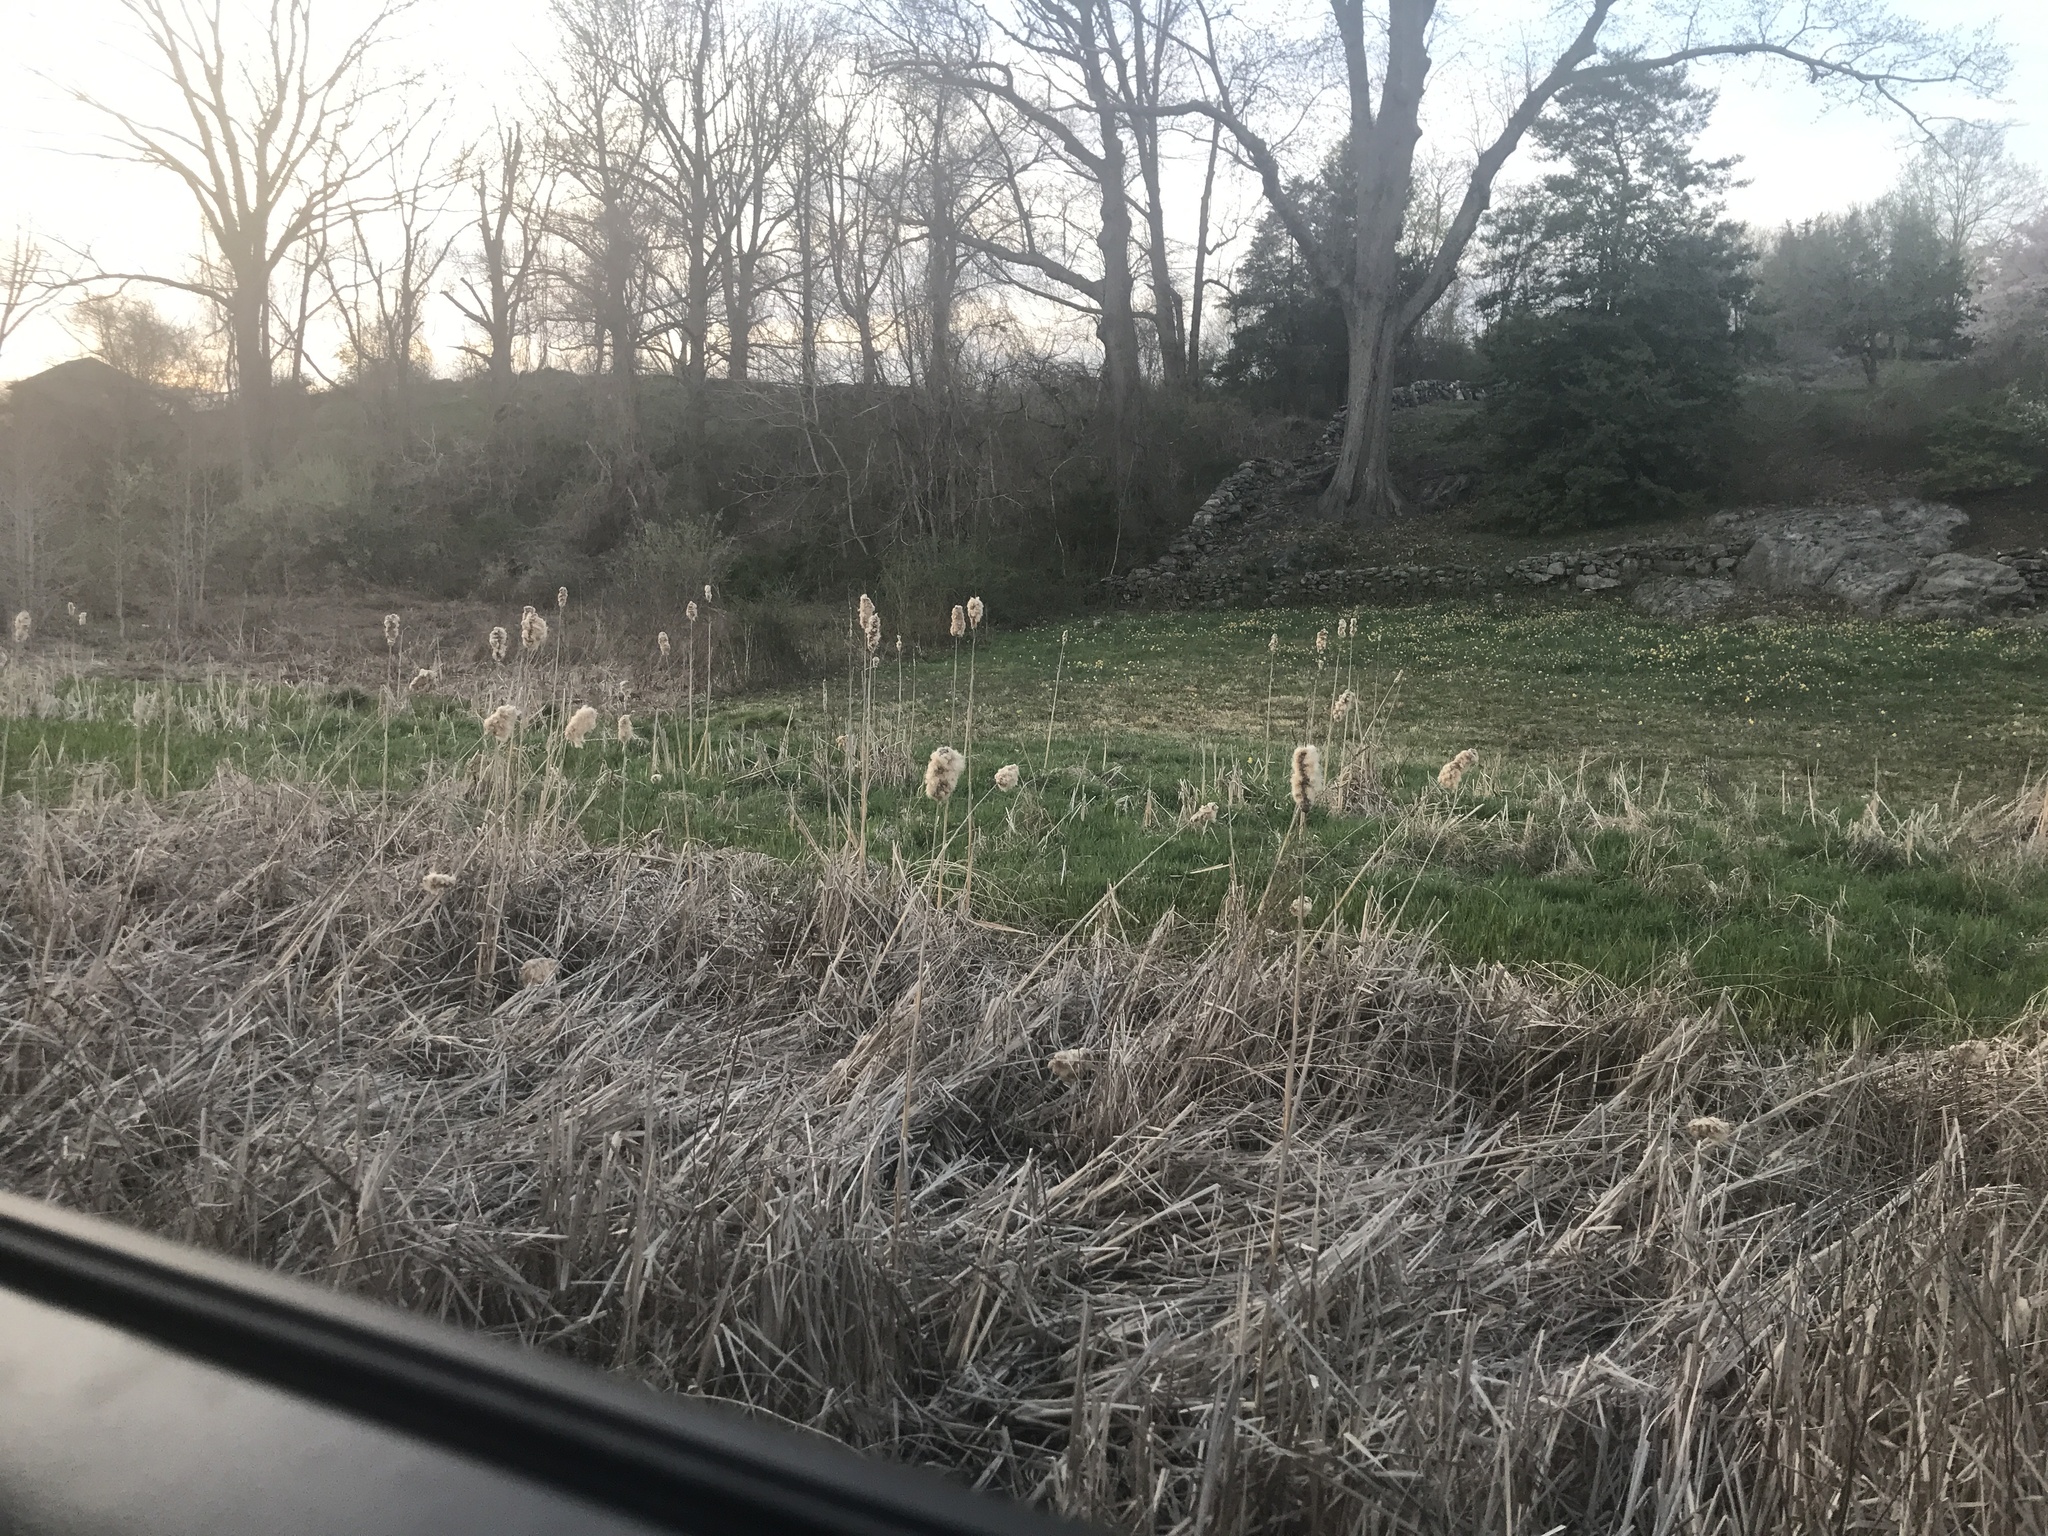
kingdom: Plantae
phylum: Tracheophyta
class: Liliopsida
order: Poales
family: Typhaceae
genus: Typha
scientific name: Typha
